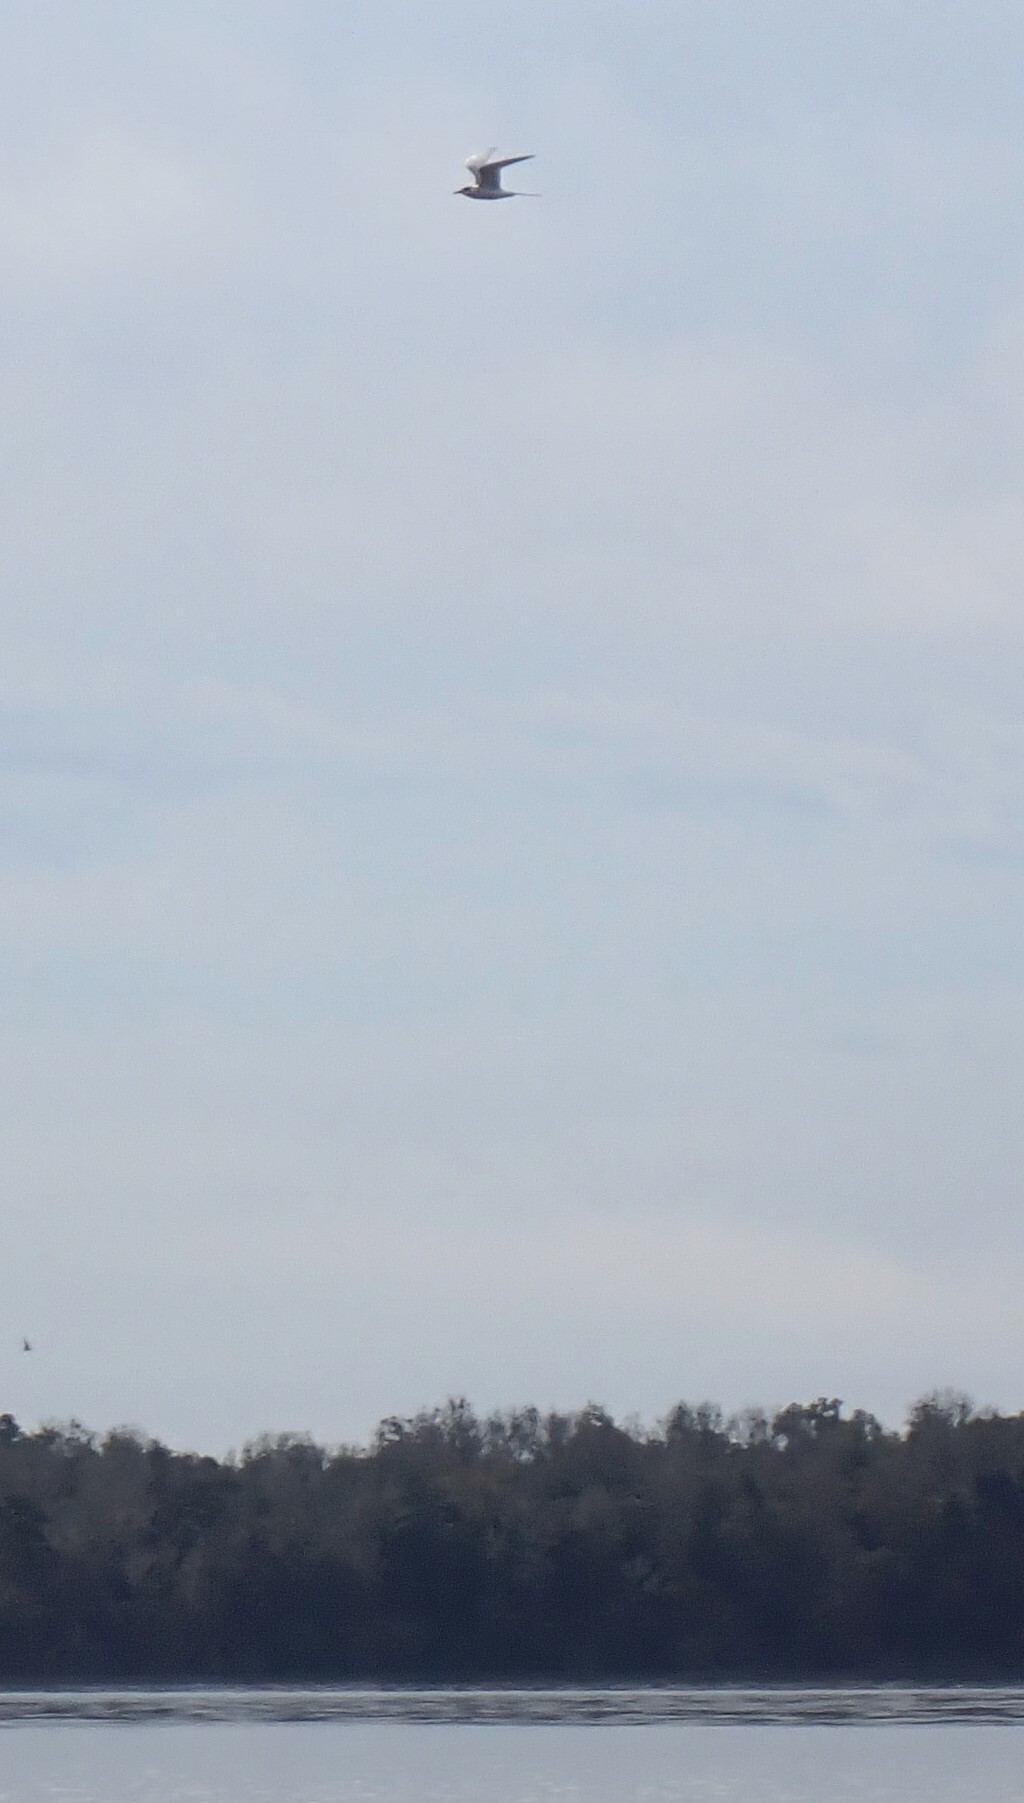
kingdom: Animalia
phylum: Chordata
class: Aves
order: Charadriiformes
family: Laridae
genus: Sterna
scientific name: Sterna forsteri
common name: Forster's tern
